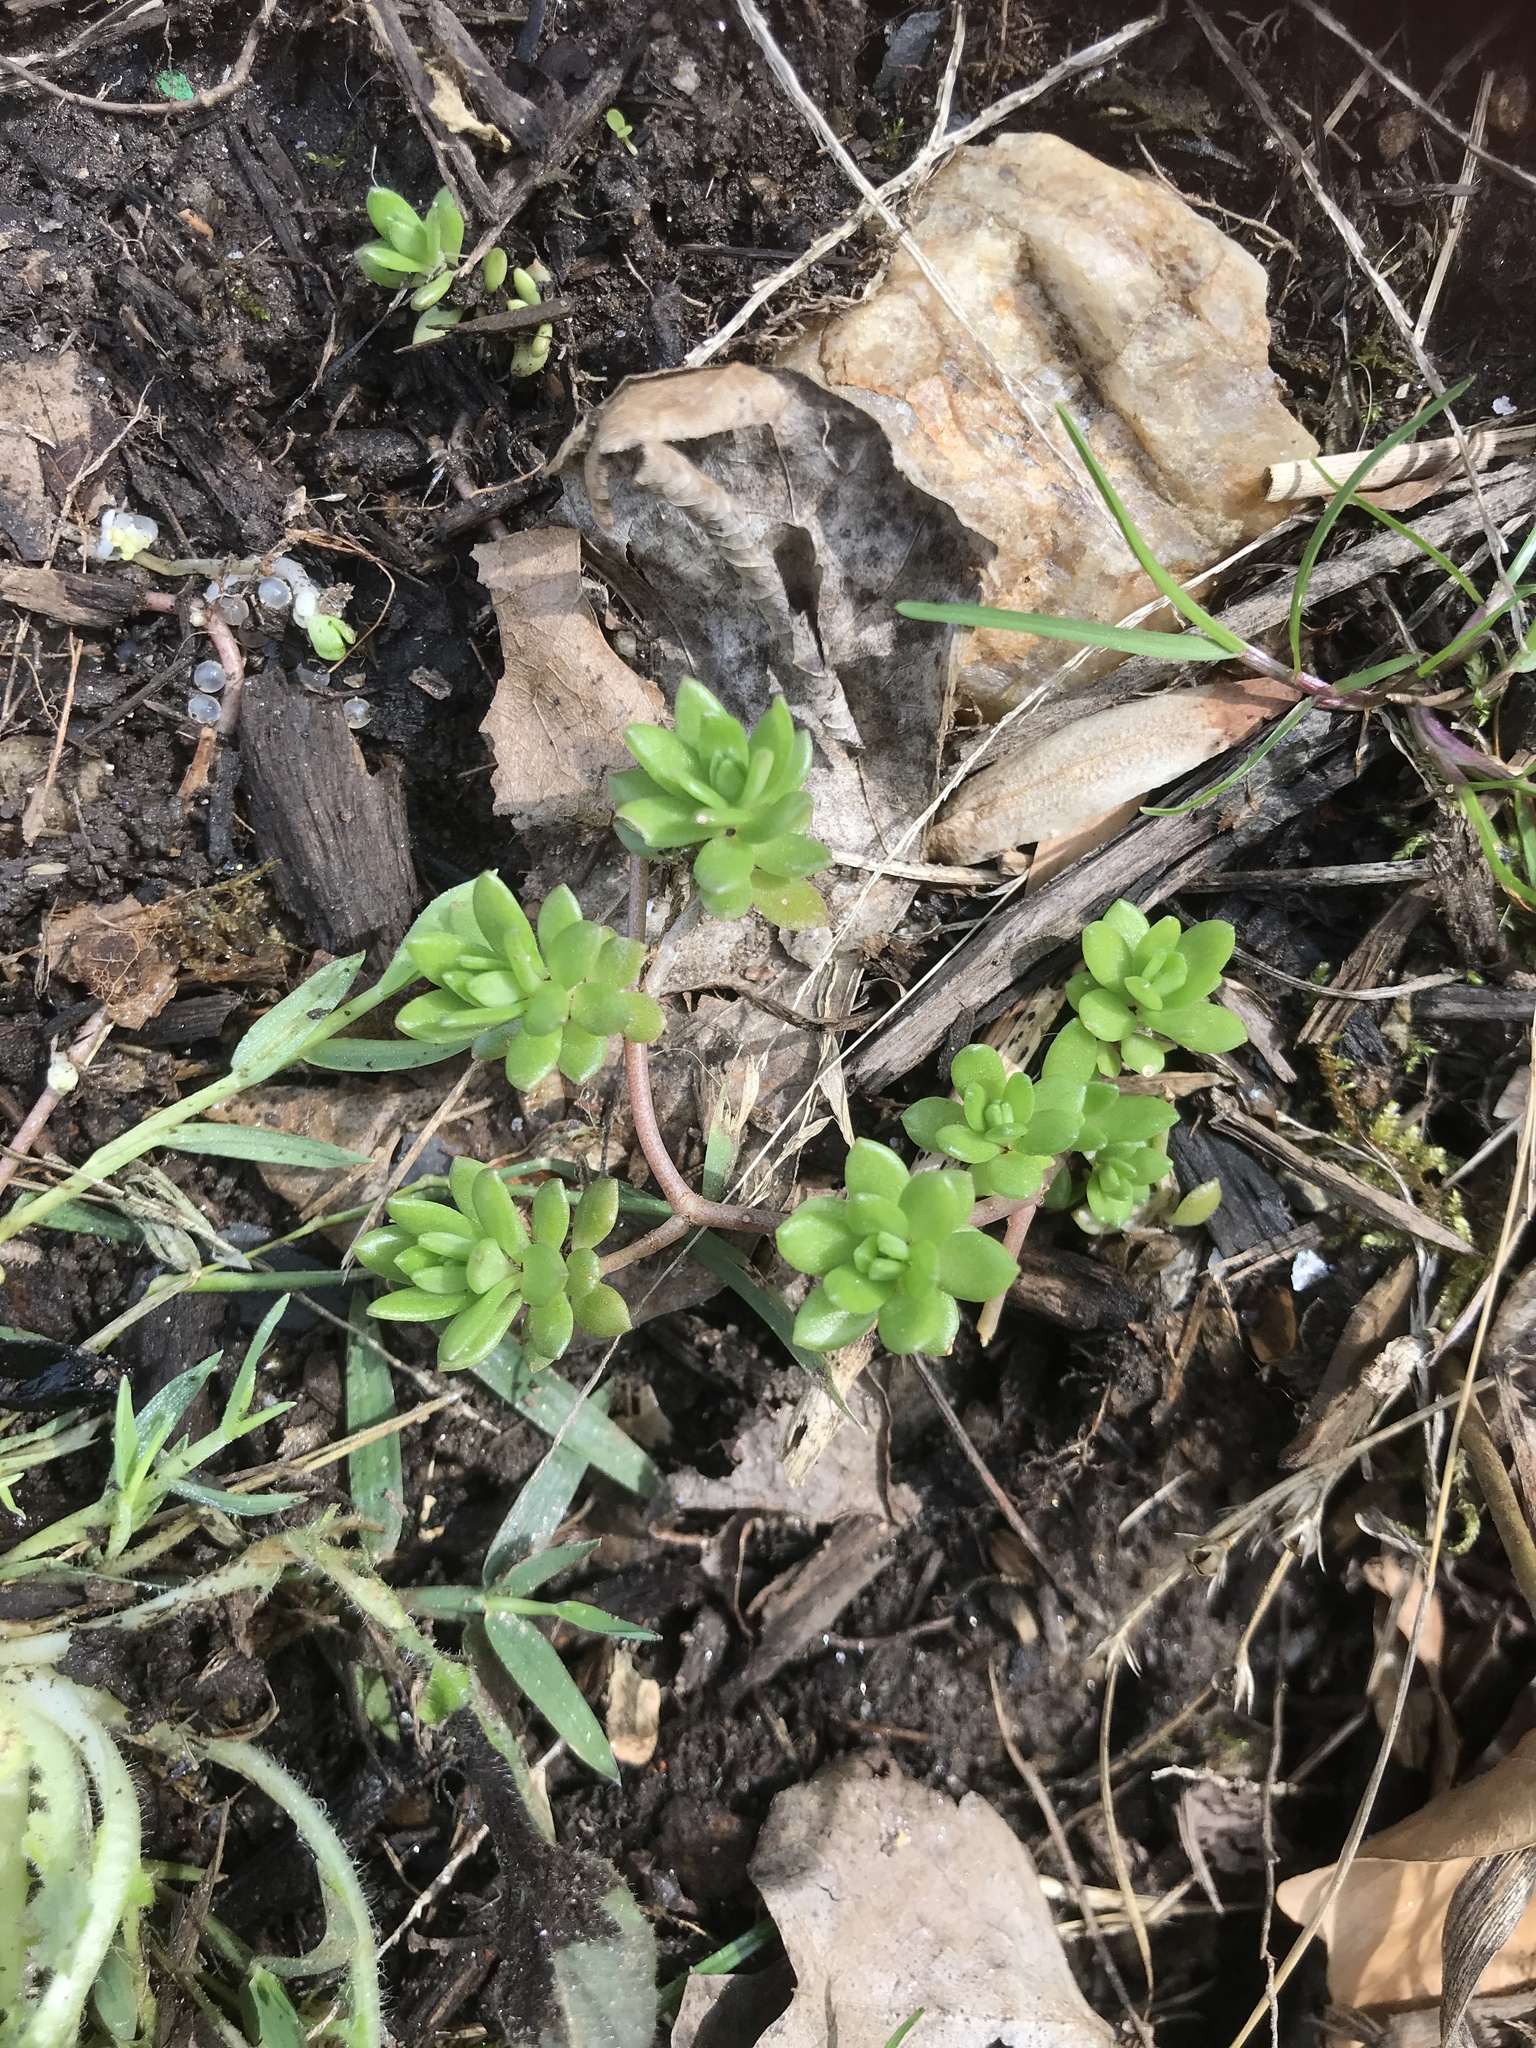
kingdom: Plantae
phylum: Tracheophyta
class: Magnoliopsida
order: Saxifragales
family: Crassulaceae
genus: Sedum
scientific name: Sedum sarmentosum
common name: Stringy stonecrop
